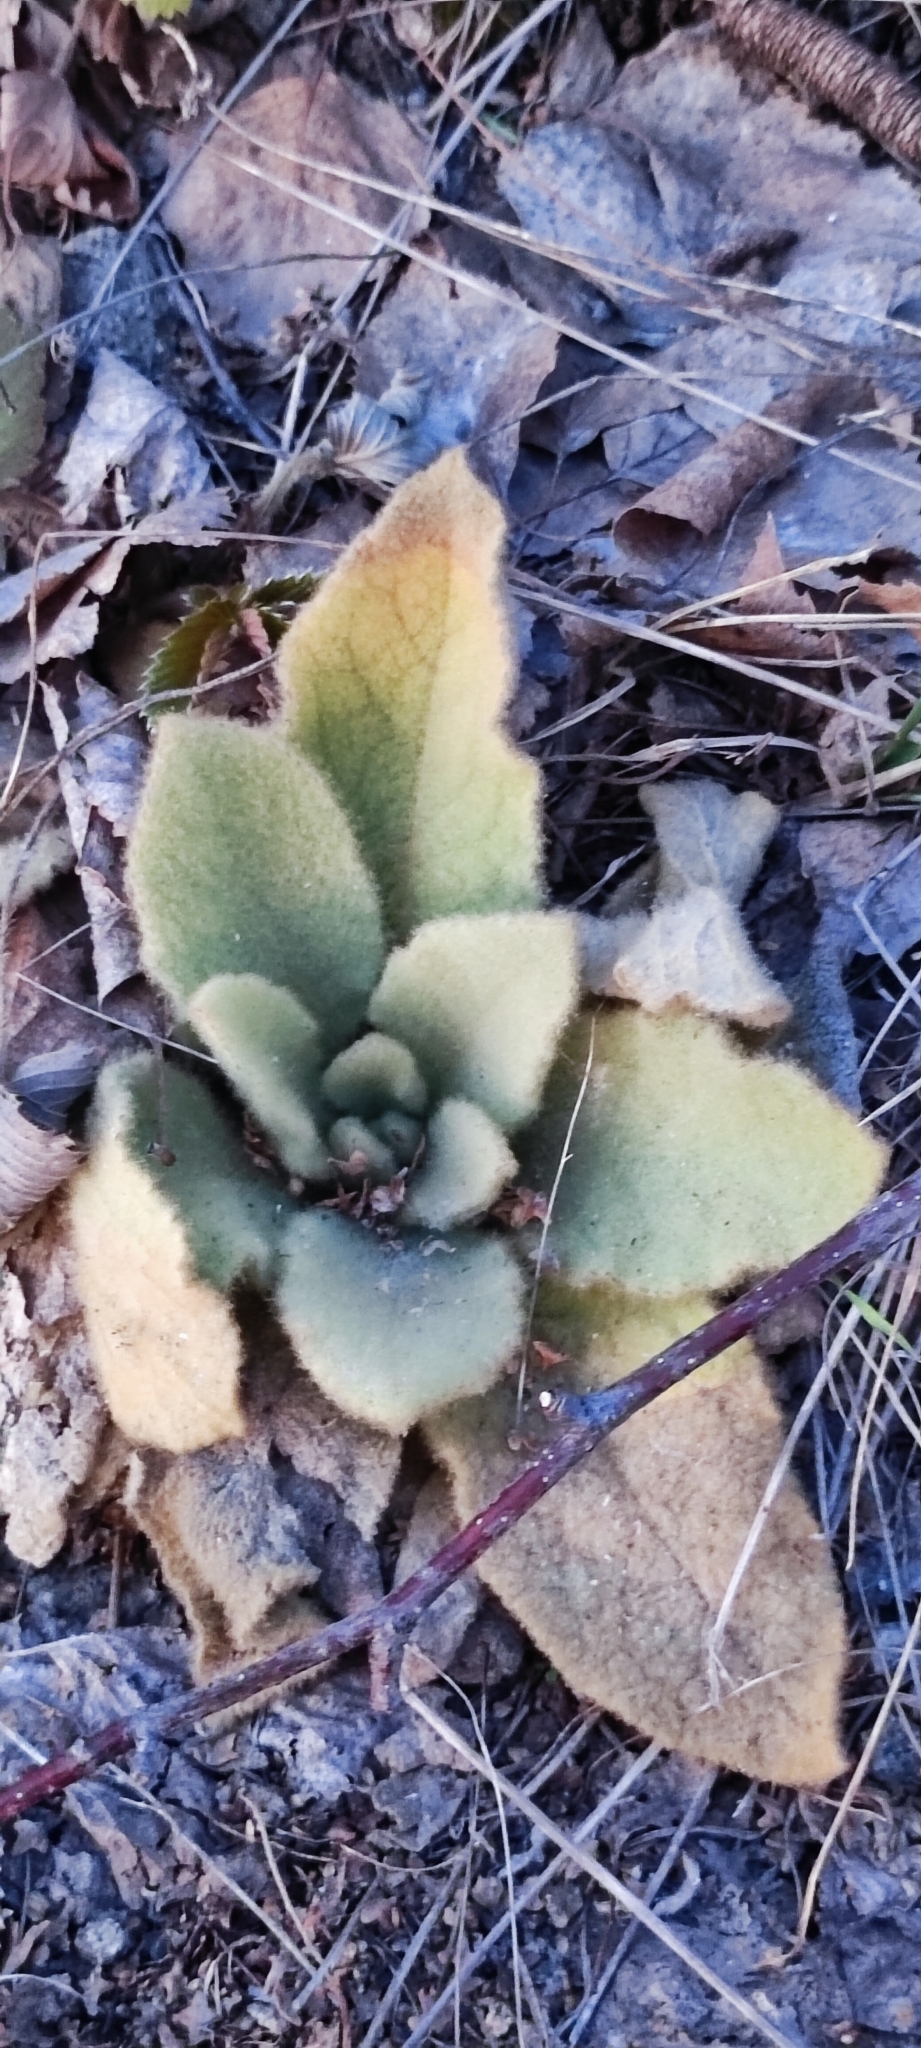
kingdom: Plantae
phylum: Tracheophyta
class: Magnoliopsida
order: Lamiales
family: Scrophulariaceae
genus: Verbascum
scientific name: Verbascum thapsus
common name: Common mullein
